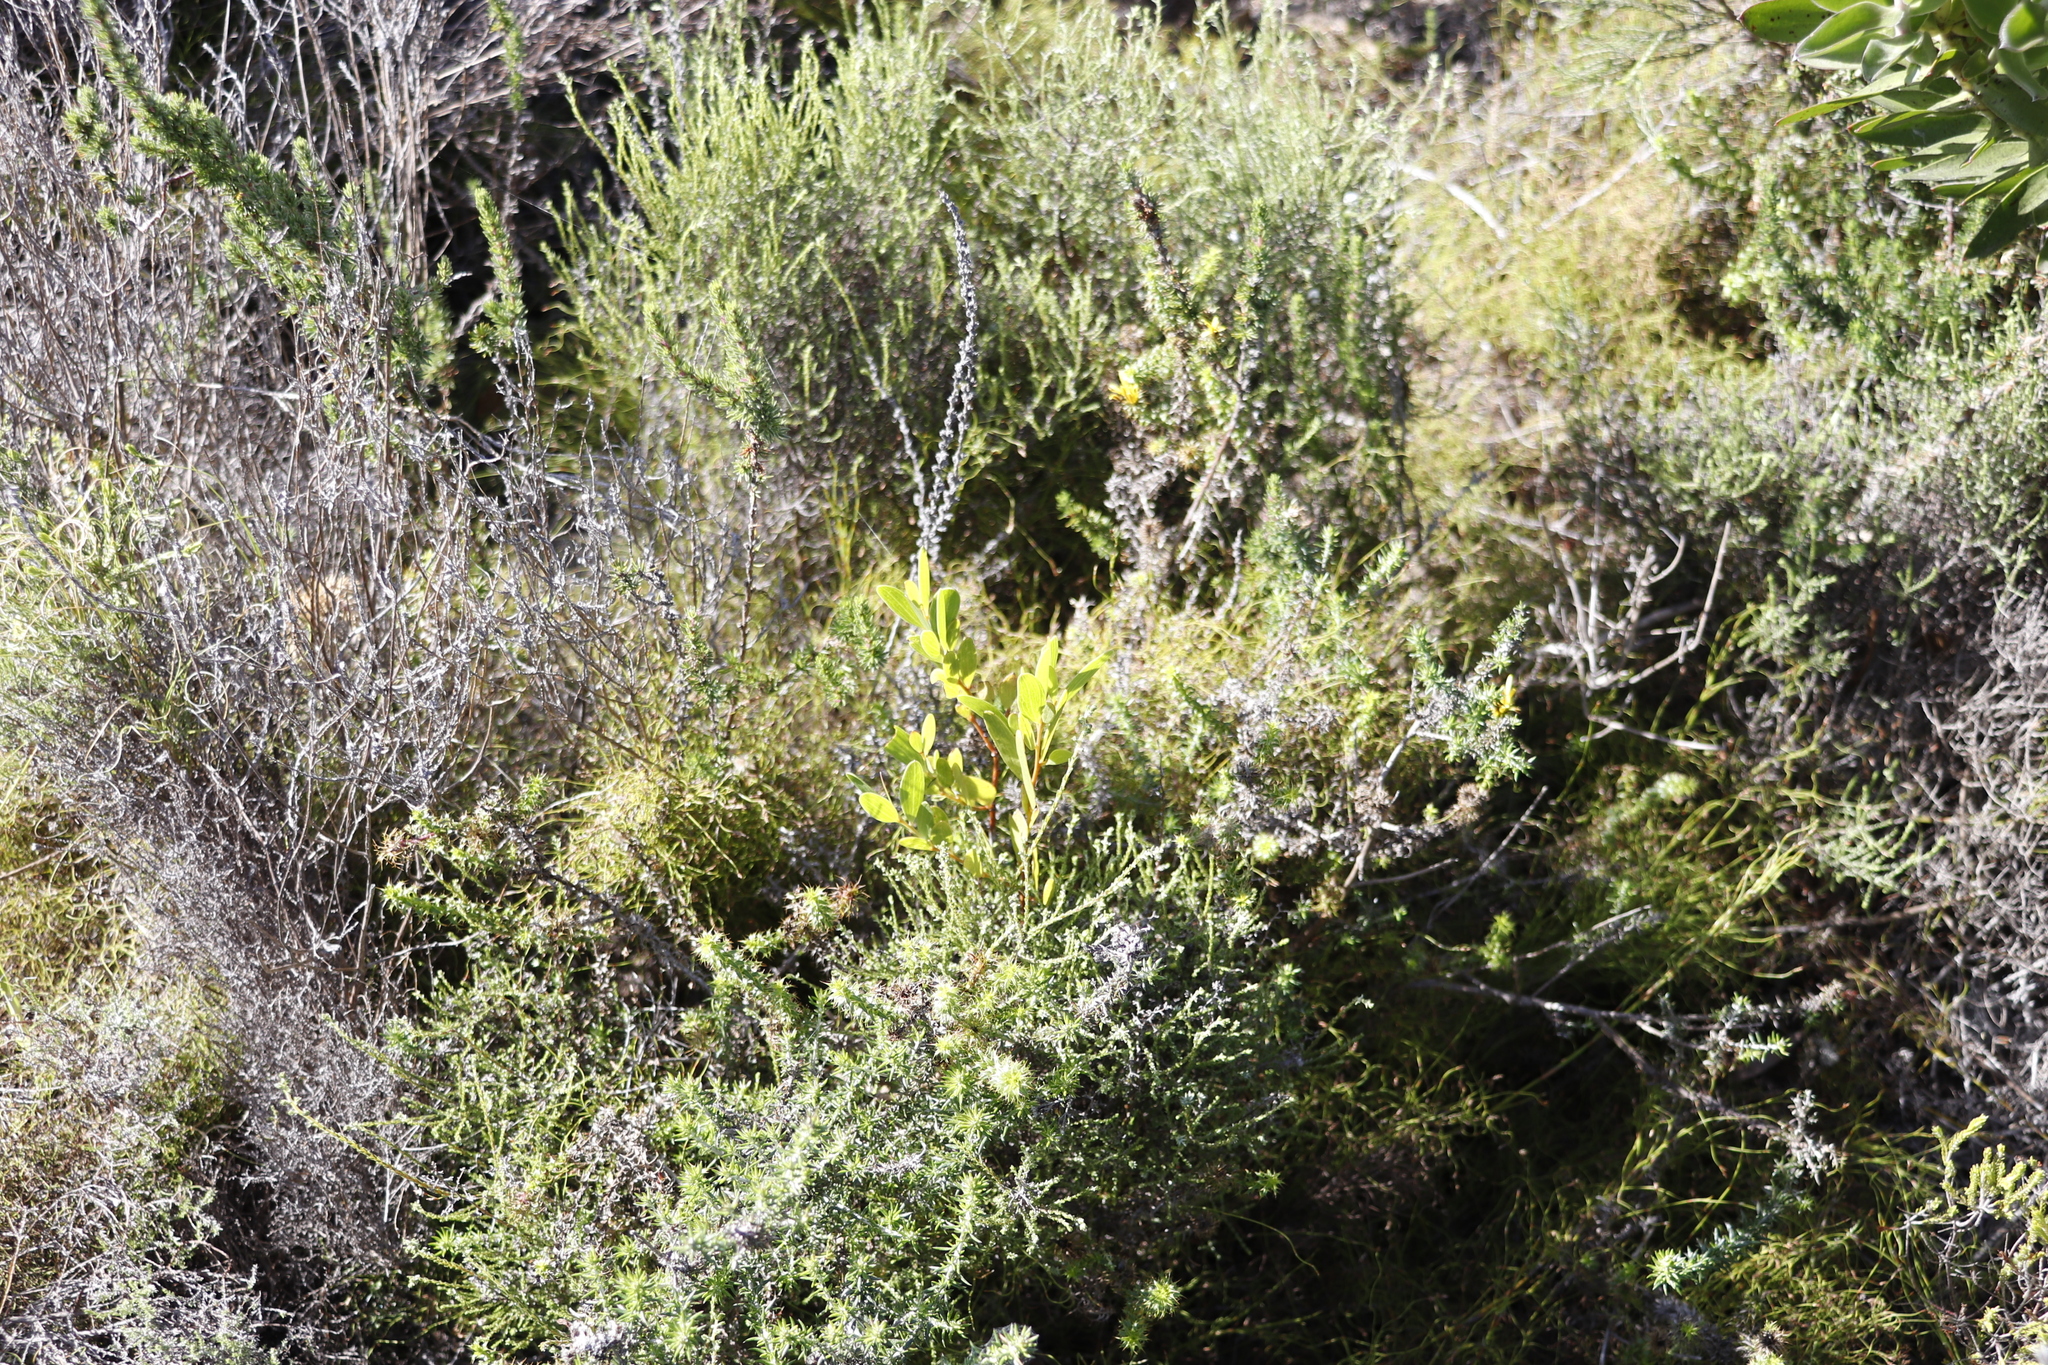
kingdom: Plantae
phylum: Tracheophyta
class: Magnoliopsida
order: Fabales
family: Fabaceae
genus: Acacia
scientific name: Acacia cyclops
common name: Coastal wattle
